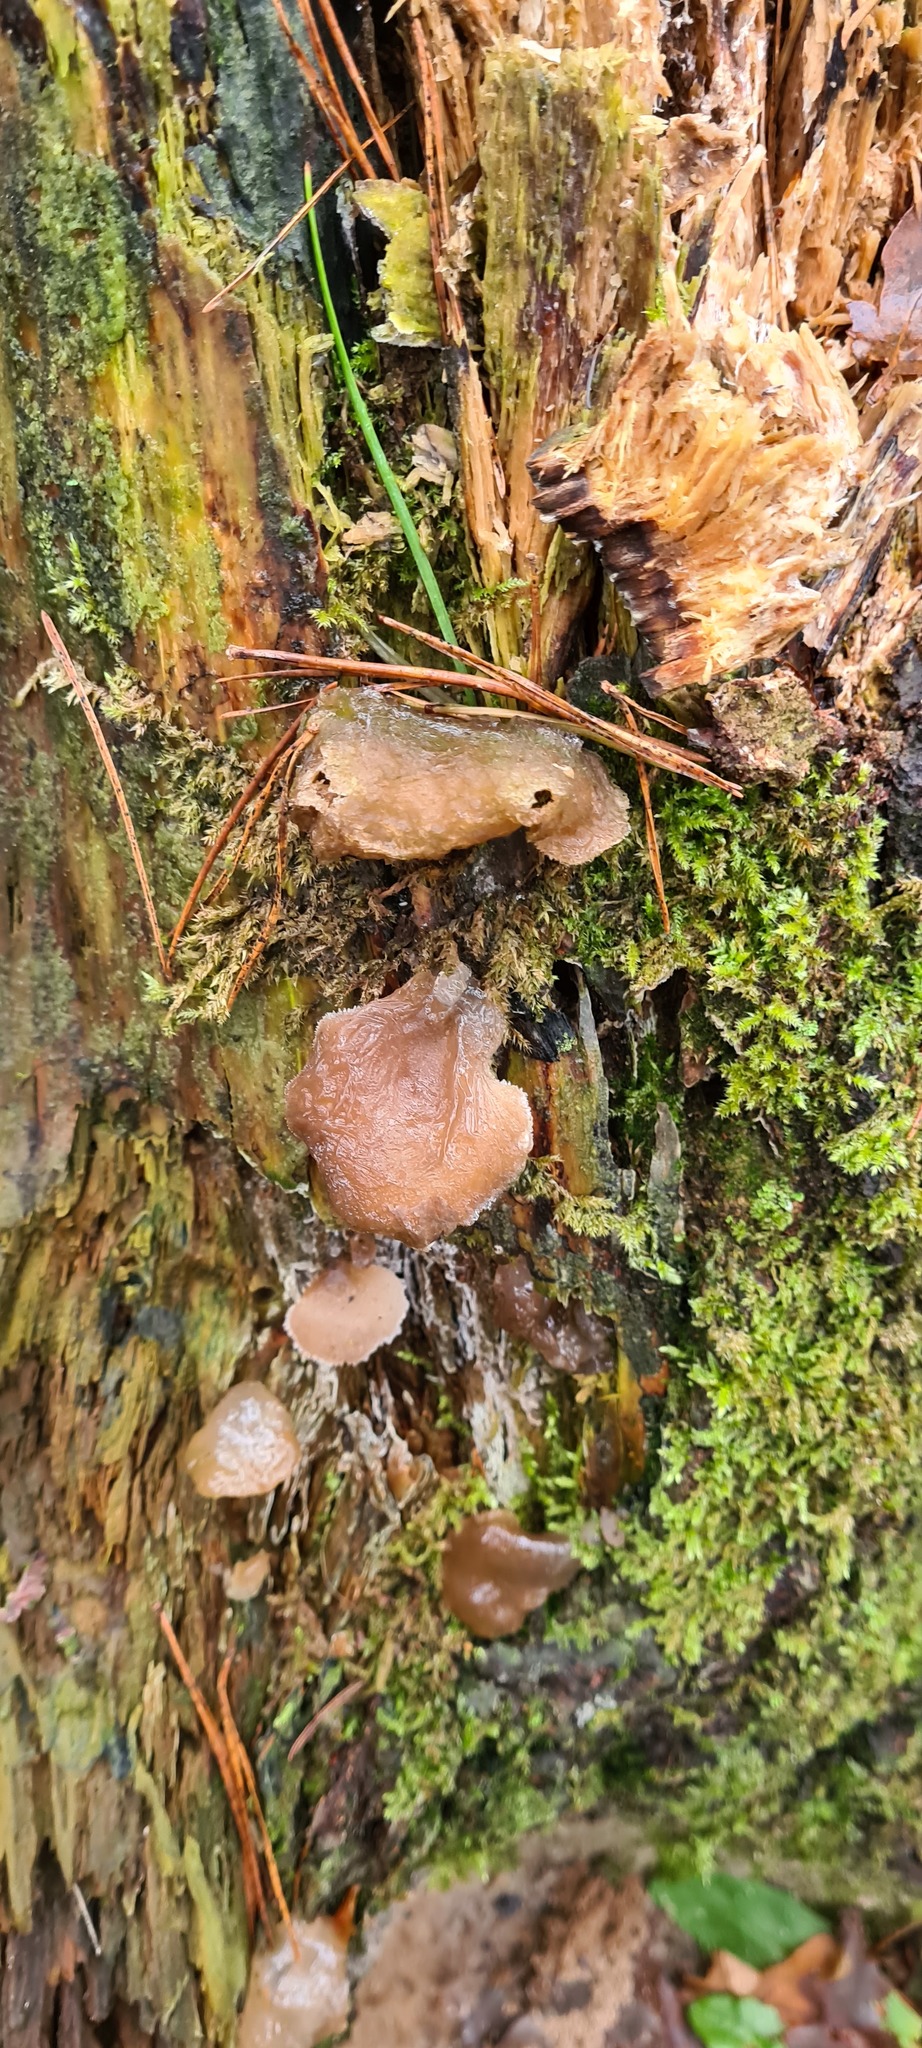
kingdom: Fungi
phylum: Basidiomycota
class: Agaricomycetes
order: Auriculariales
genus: Pseudohydnum
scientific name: Pseudohydnum gelatinosum
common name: Jelly tongue
